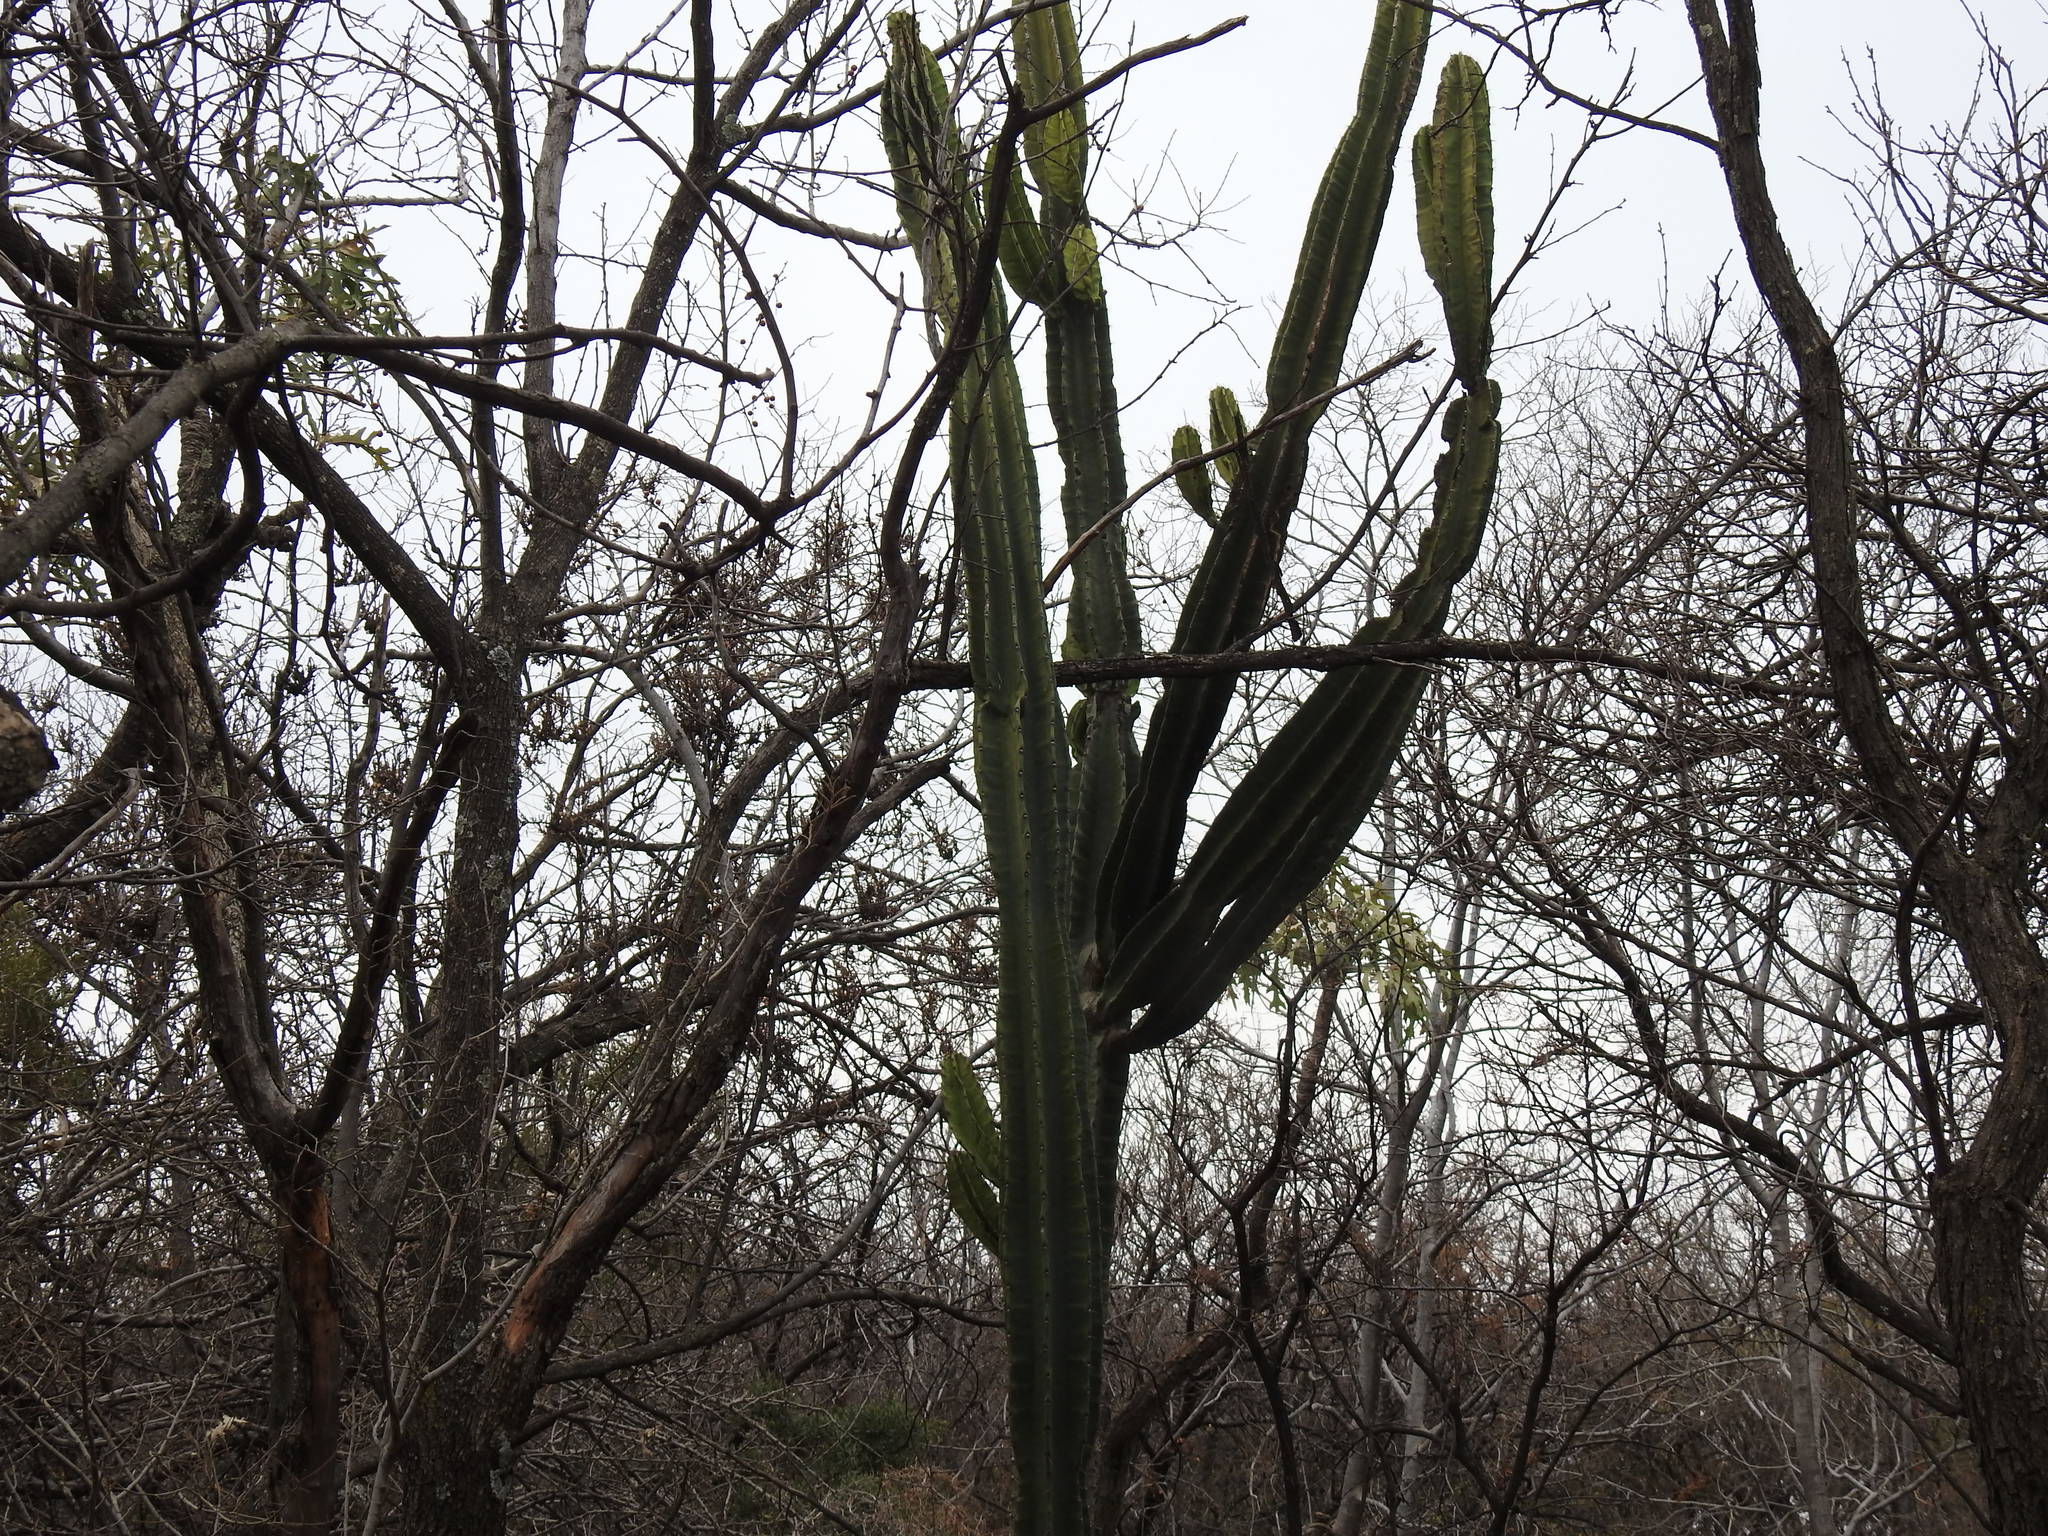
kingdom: Plantae
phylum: Tracheophyta
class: Magnoliopsida
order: Caryophyllales
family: Cactaceae
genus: Cereus
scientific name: Cereus jamacaru
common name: Queen-of-the-night
